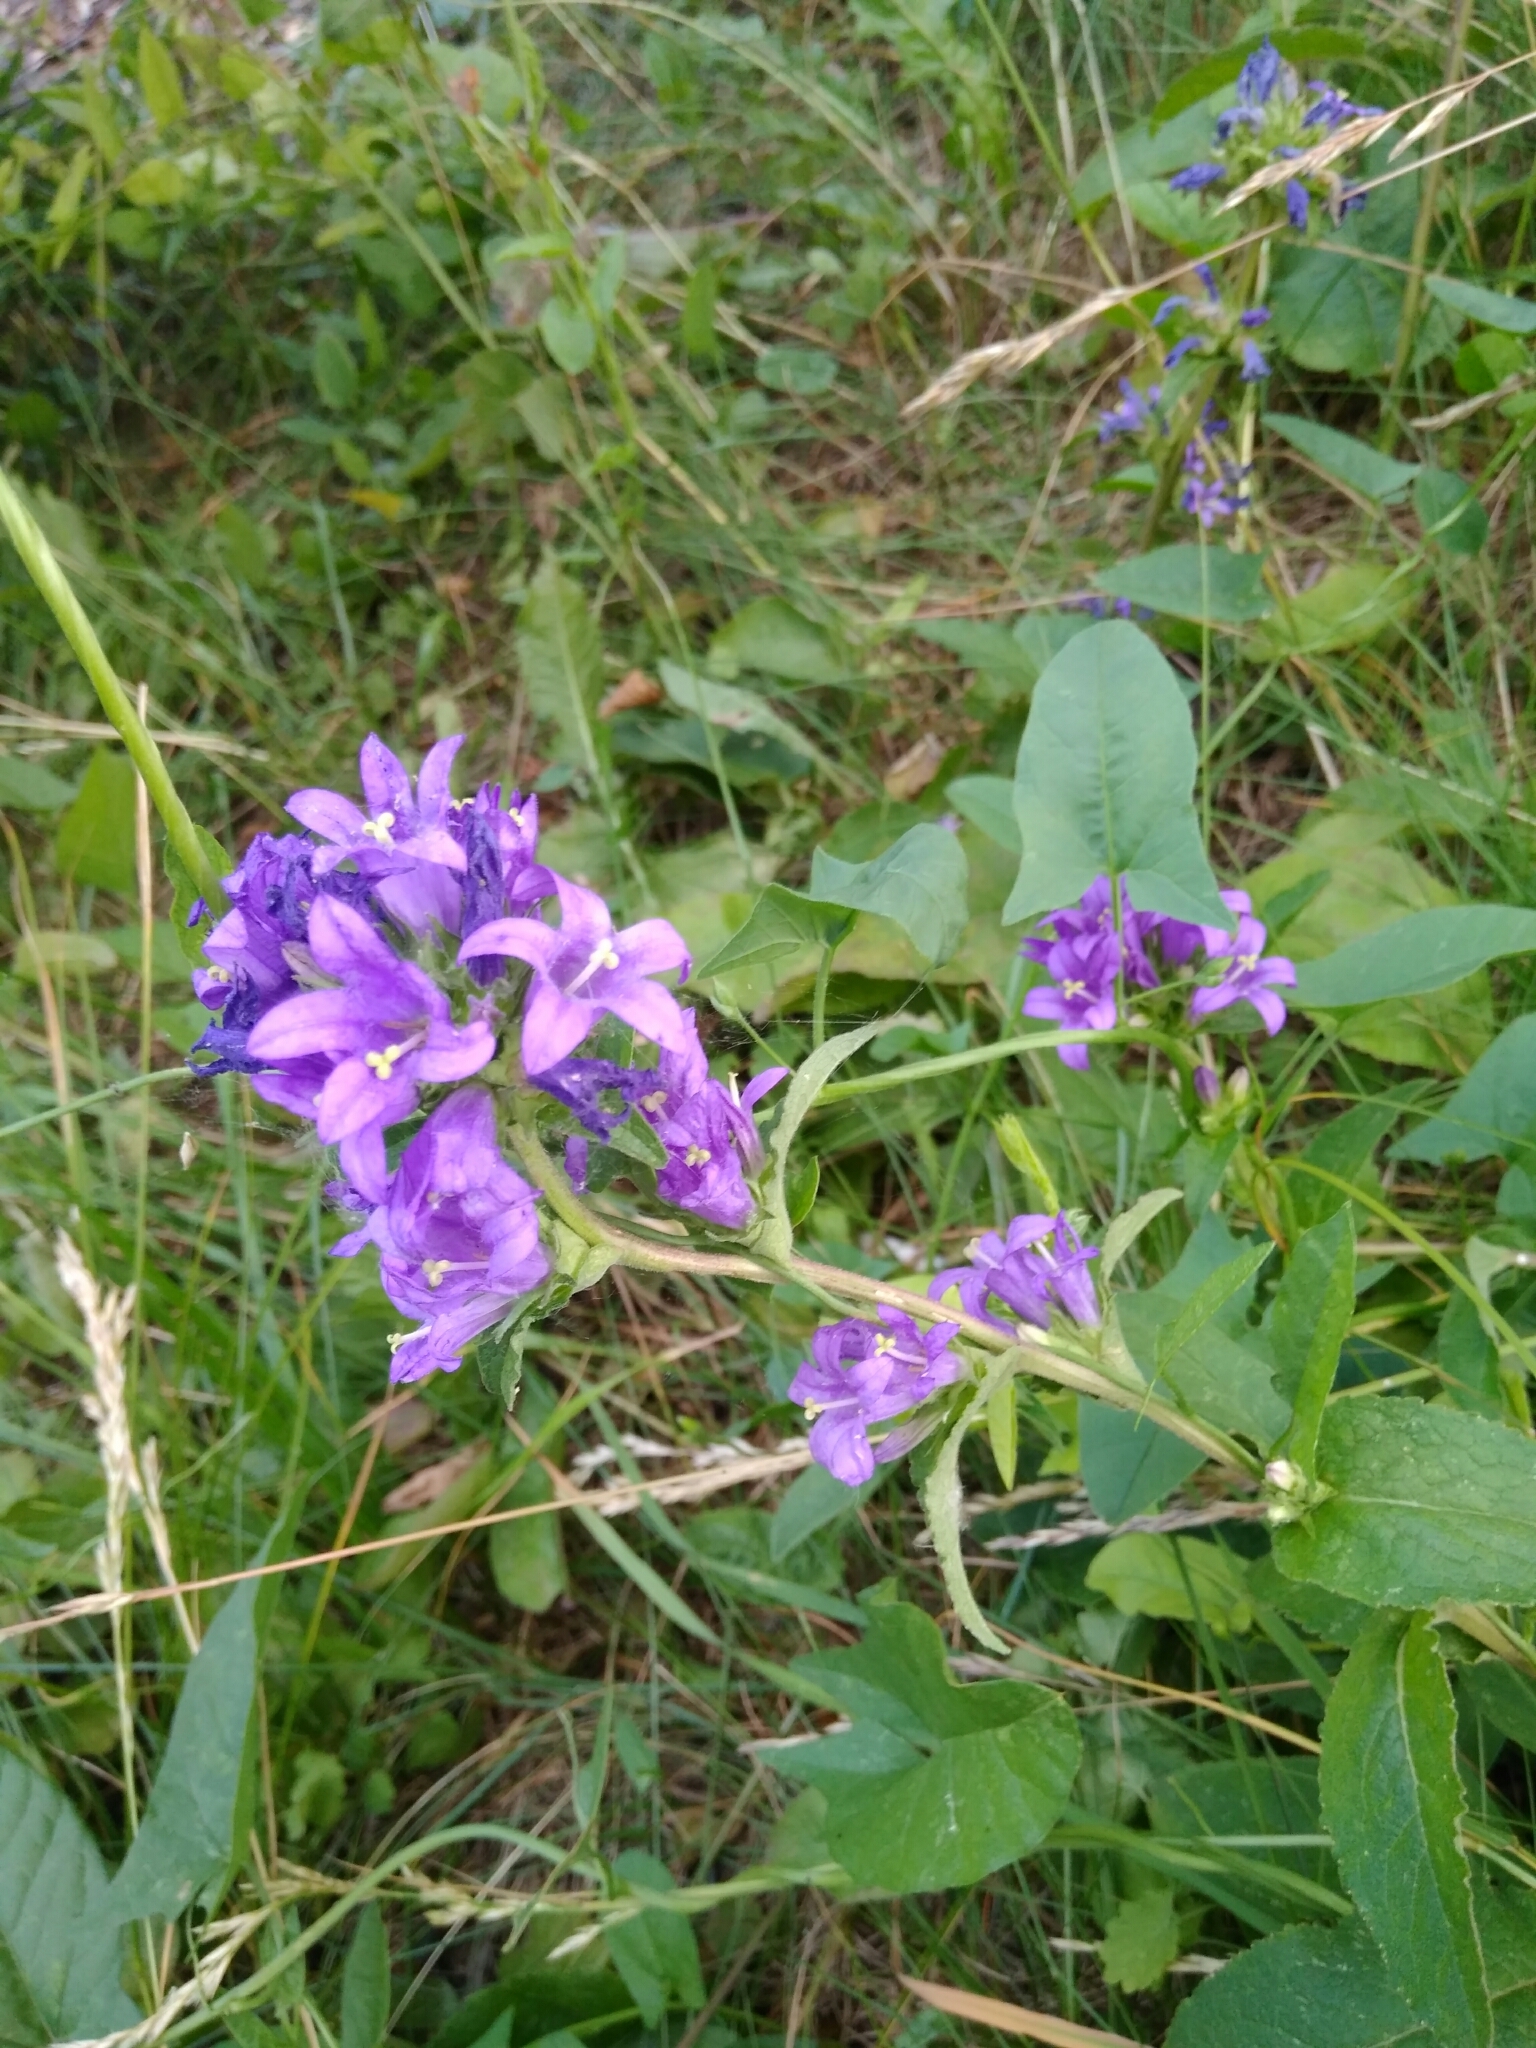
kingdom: Plantae
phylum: Tracheophyta
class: Magnoliopsida
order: Asterales
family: Campanulaceae
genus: Campanula
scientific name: Campanula glomerata
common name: Clustered bellflower
